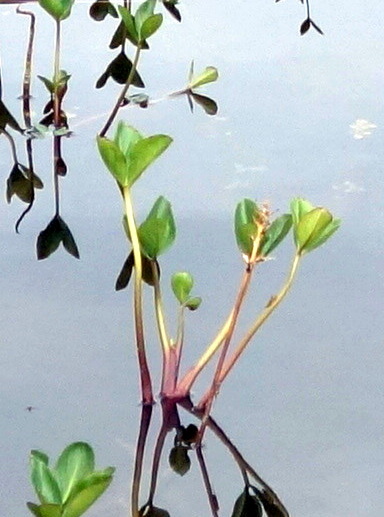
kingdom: Plantae
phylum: Tracheophyta
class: Magnoliopsida
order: Asterales
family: Menyanthaceae
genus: Menyanthes
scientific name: Menyanthes trifoliata
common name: Bogbean
